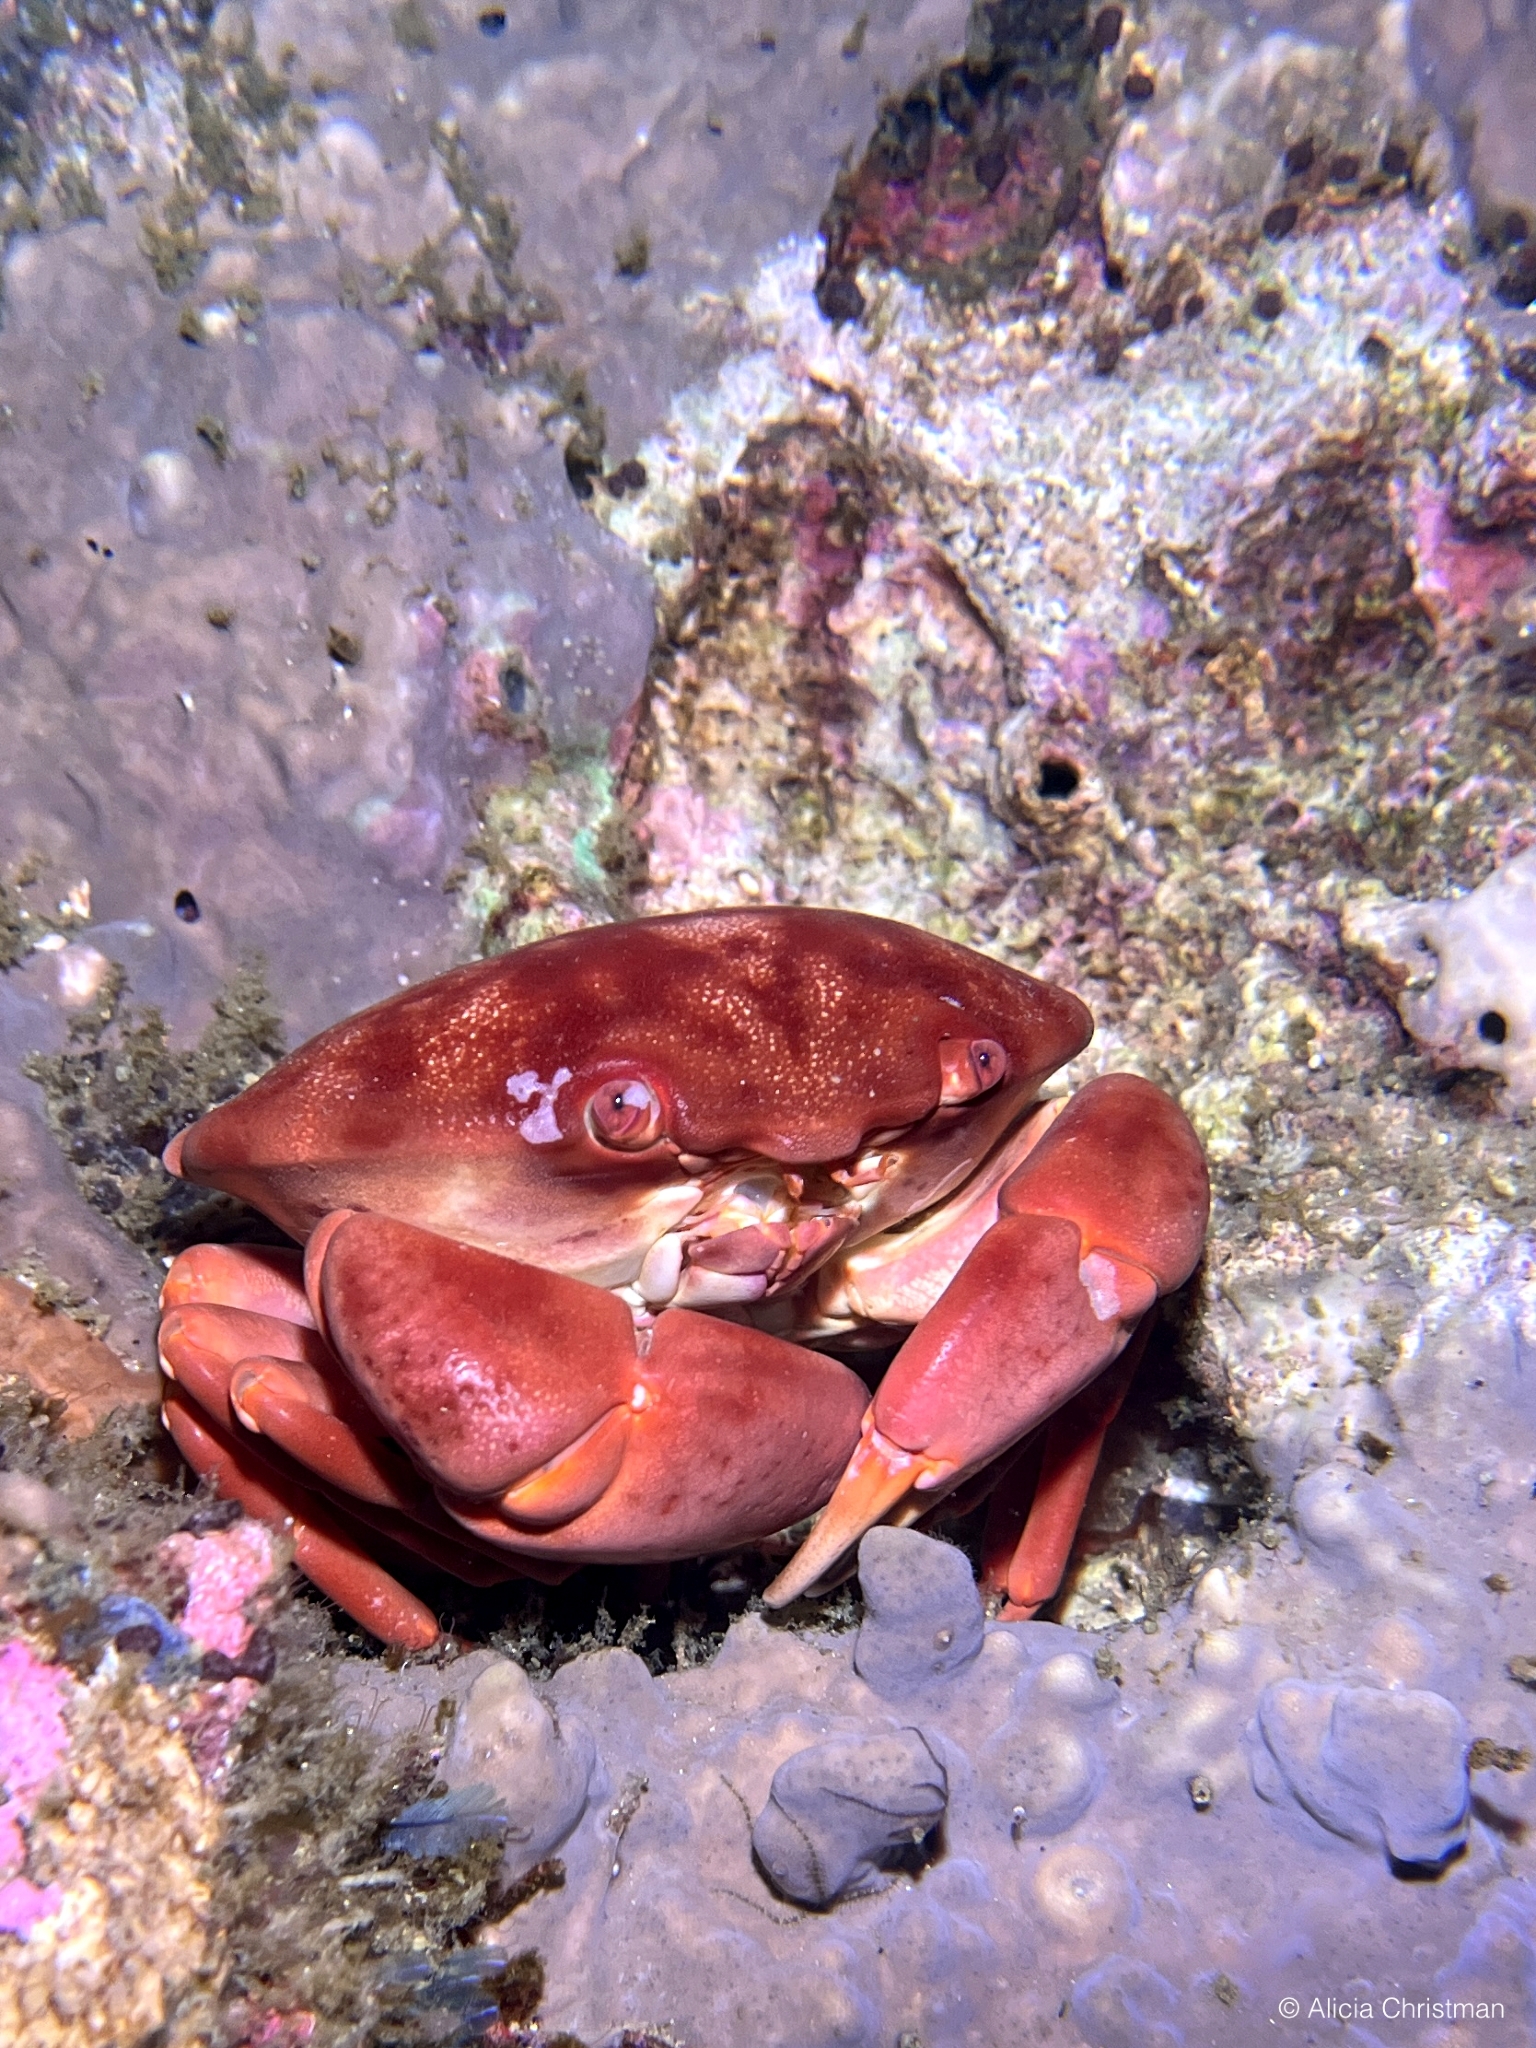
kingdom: Animalia
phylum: Arthropoda
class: Malacostraca
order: Decapoda
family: Carpiliidae
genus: Carpilius
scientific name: Carpilius convexus
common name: Convex reef crab
